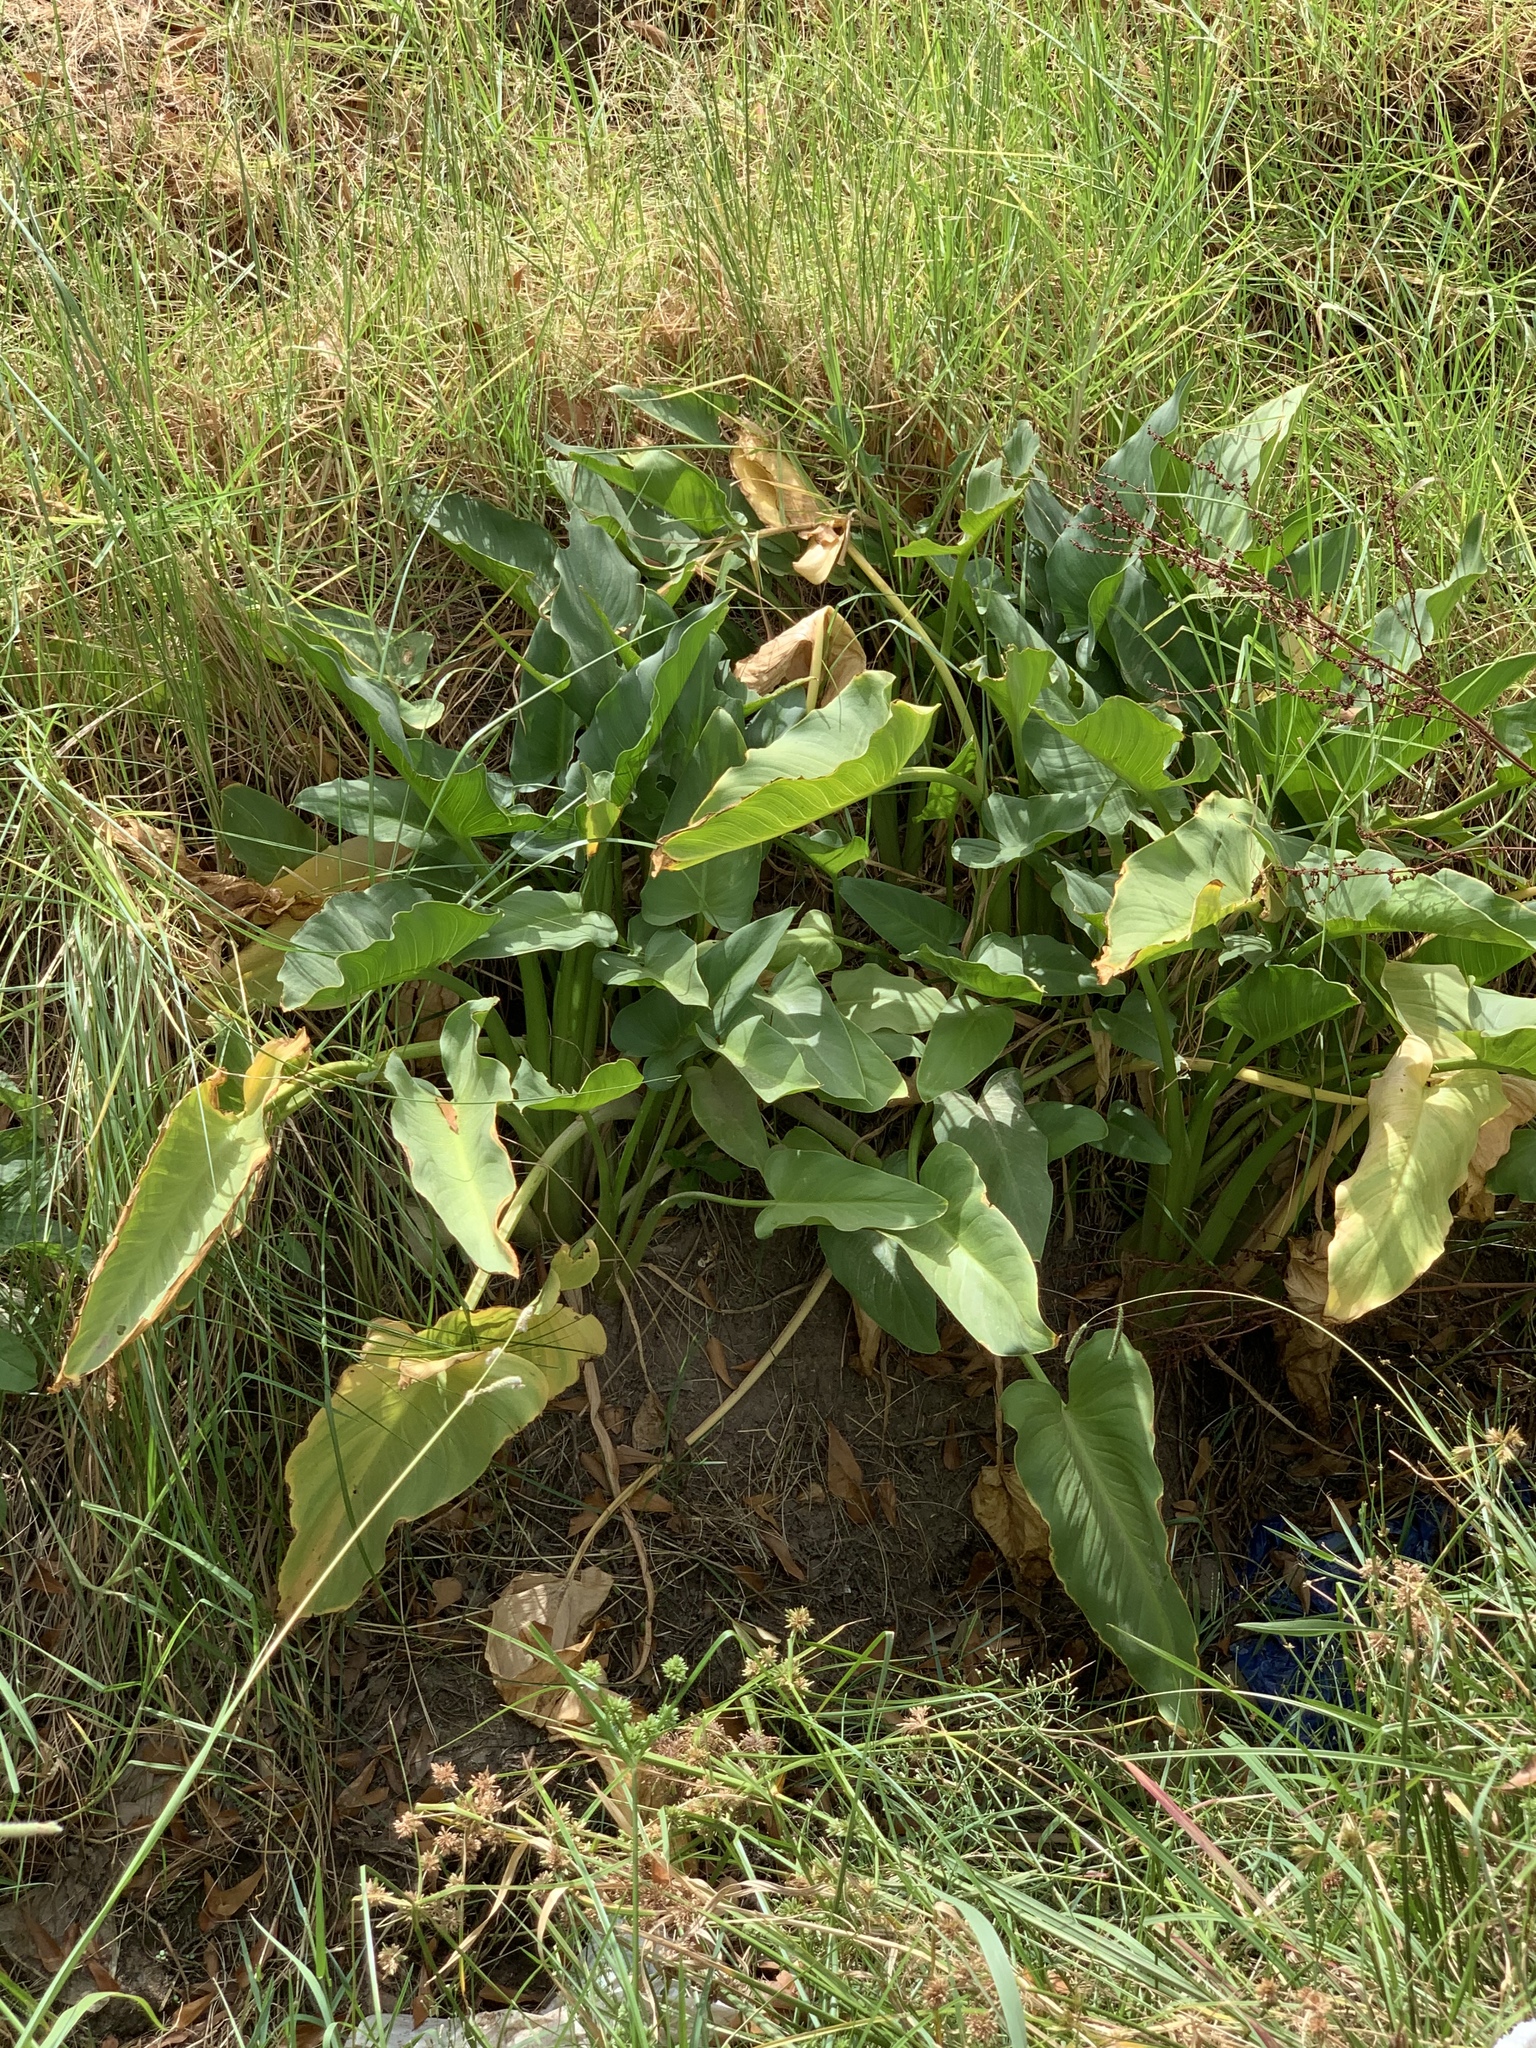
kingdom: Plantae
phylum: Tracheophyta
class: Liliopsida
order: Alismatales
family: Araceae
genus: Zantedeschia
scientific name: Zantedeschia aethiopica
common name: Altar-lily
